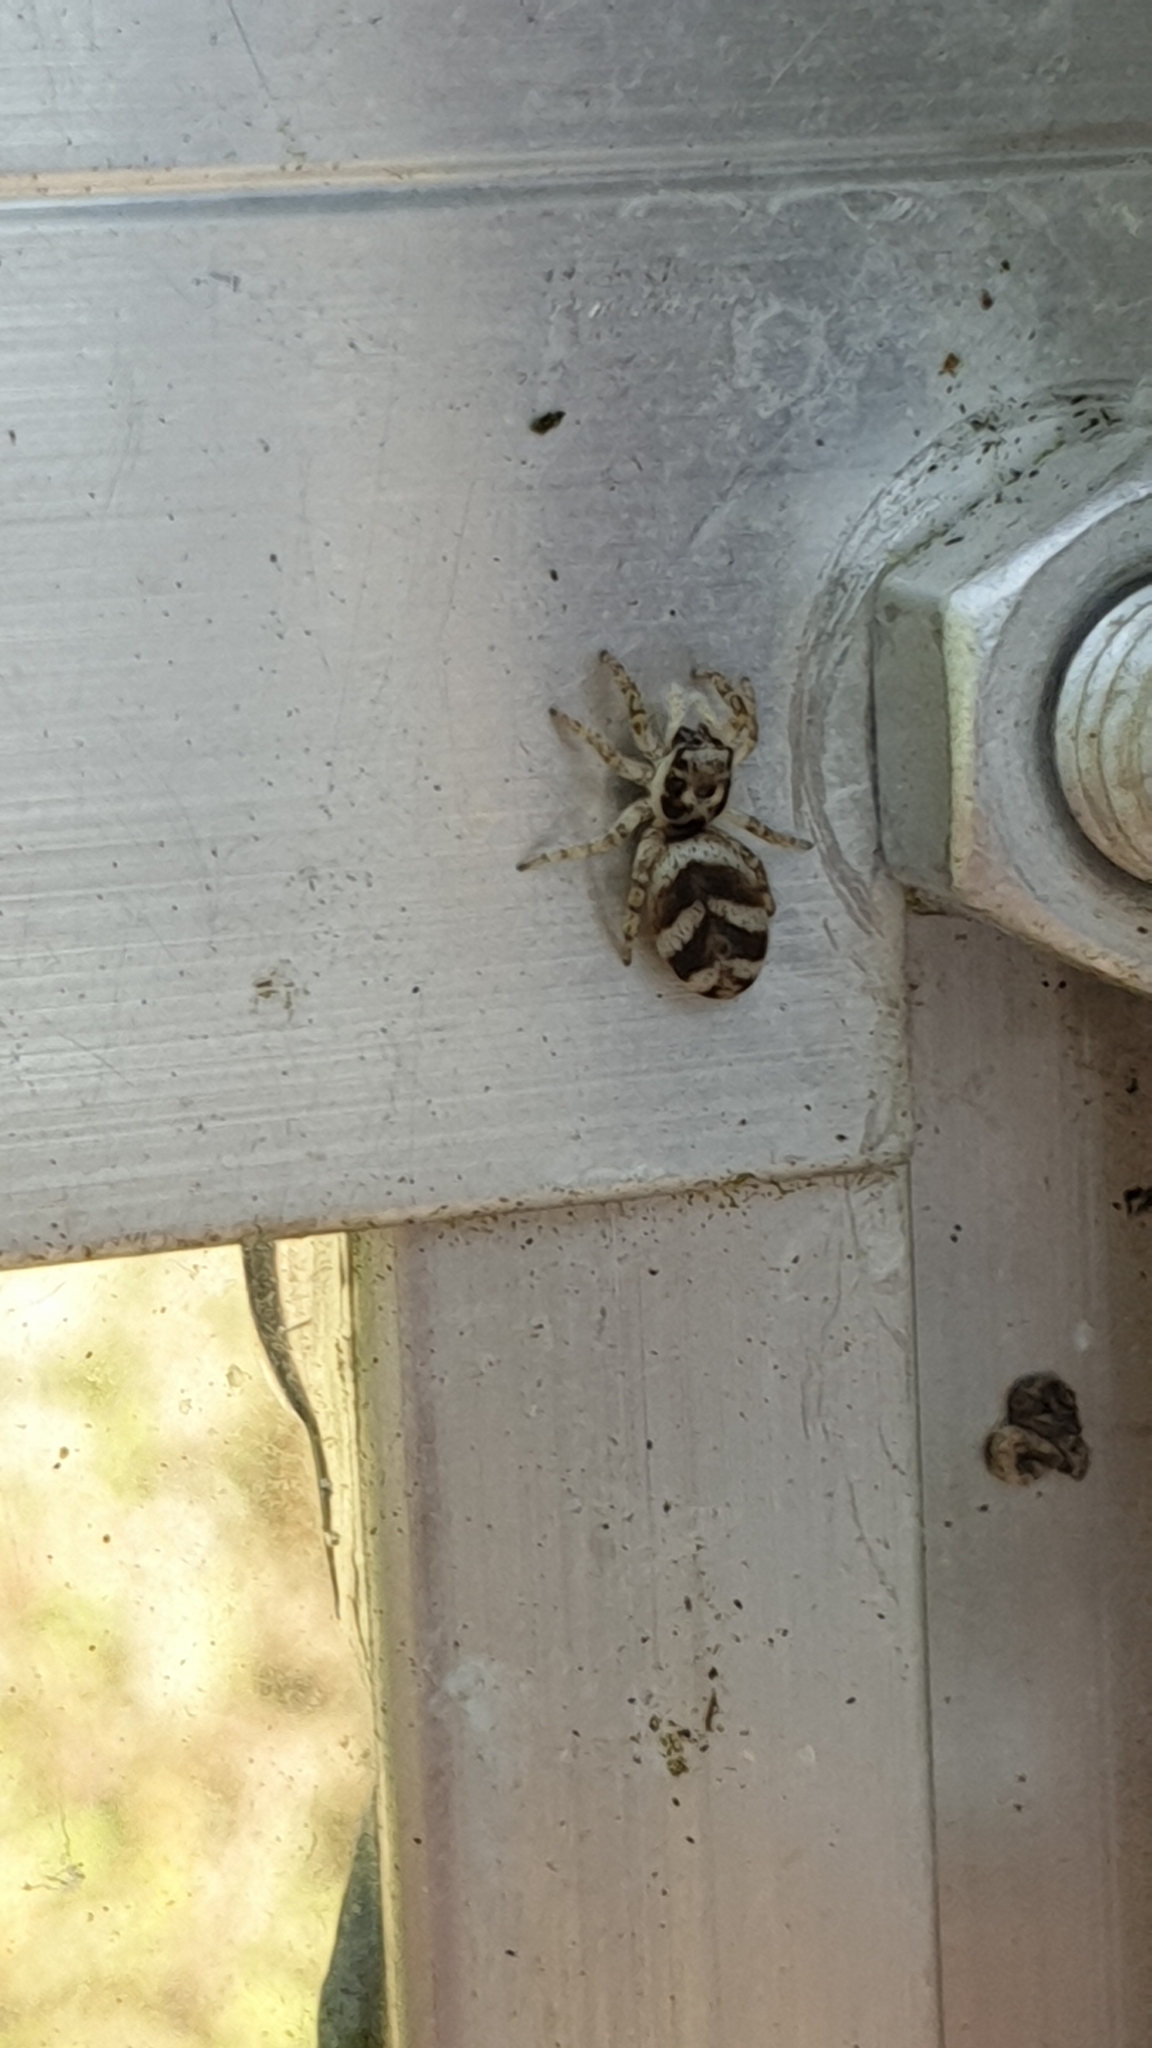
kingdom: Animalia
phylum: Arthropoda
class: Arachnida
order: Araneae
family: Salticidae
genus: Salticus
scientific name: Salticus scenicus
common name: Zebra jumper
